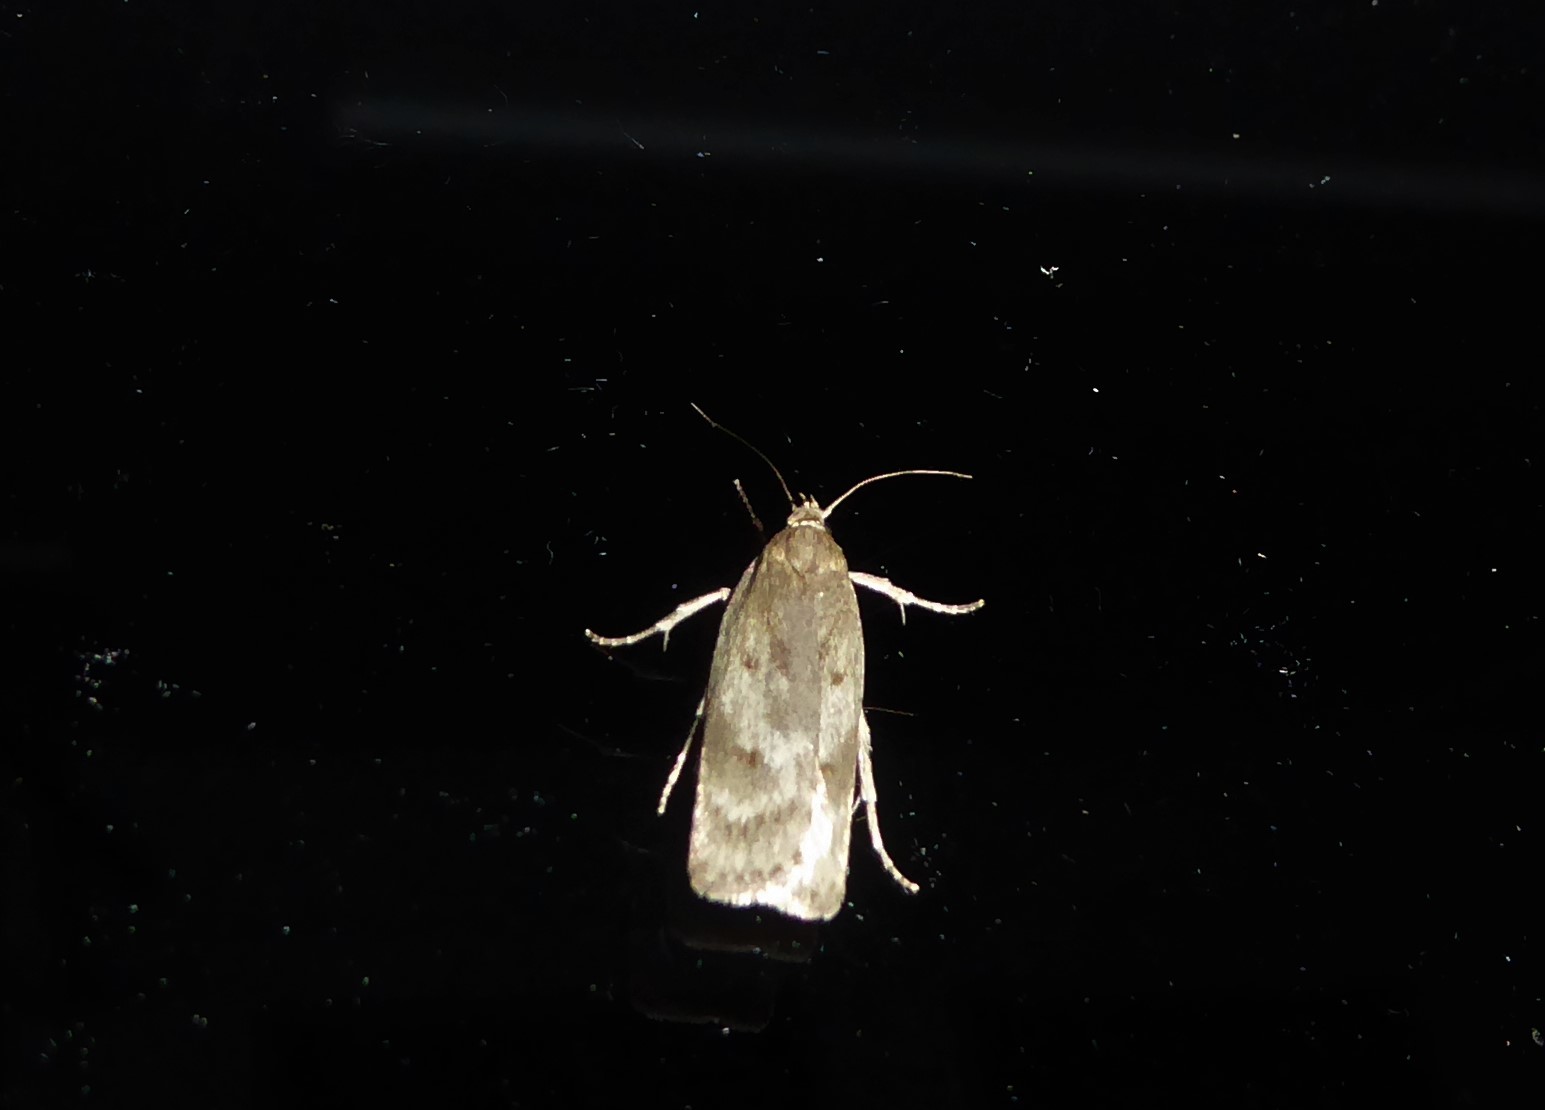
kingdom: Animalia
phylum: Arthropoda
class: Insecta
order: Lepidoptera
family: Depressariidae
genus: Phaeosaces
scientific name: Phaeosaces apocrypta
